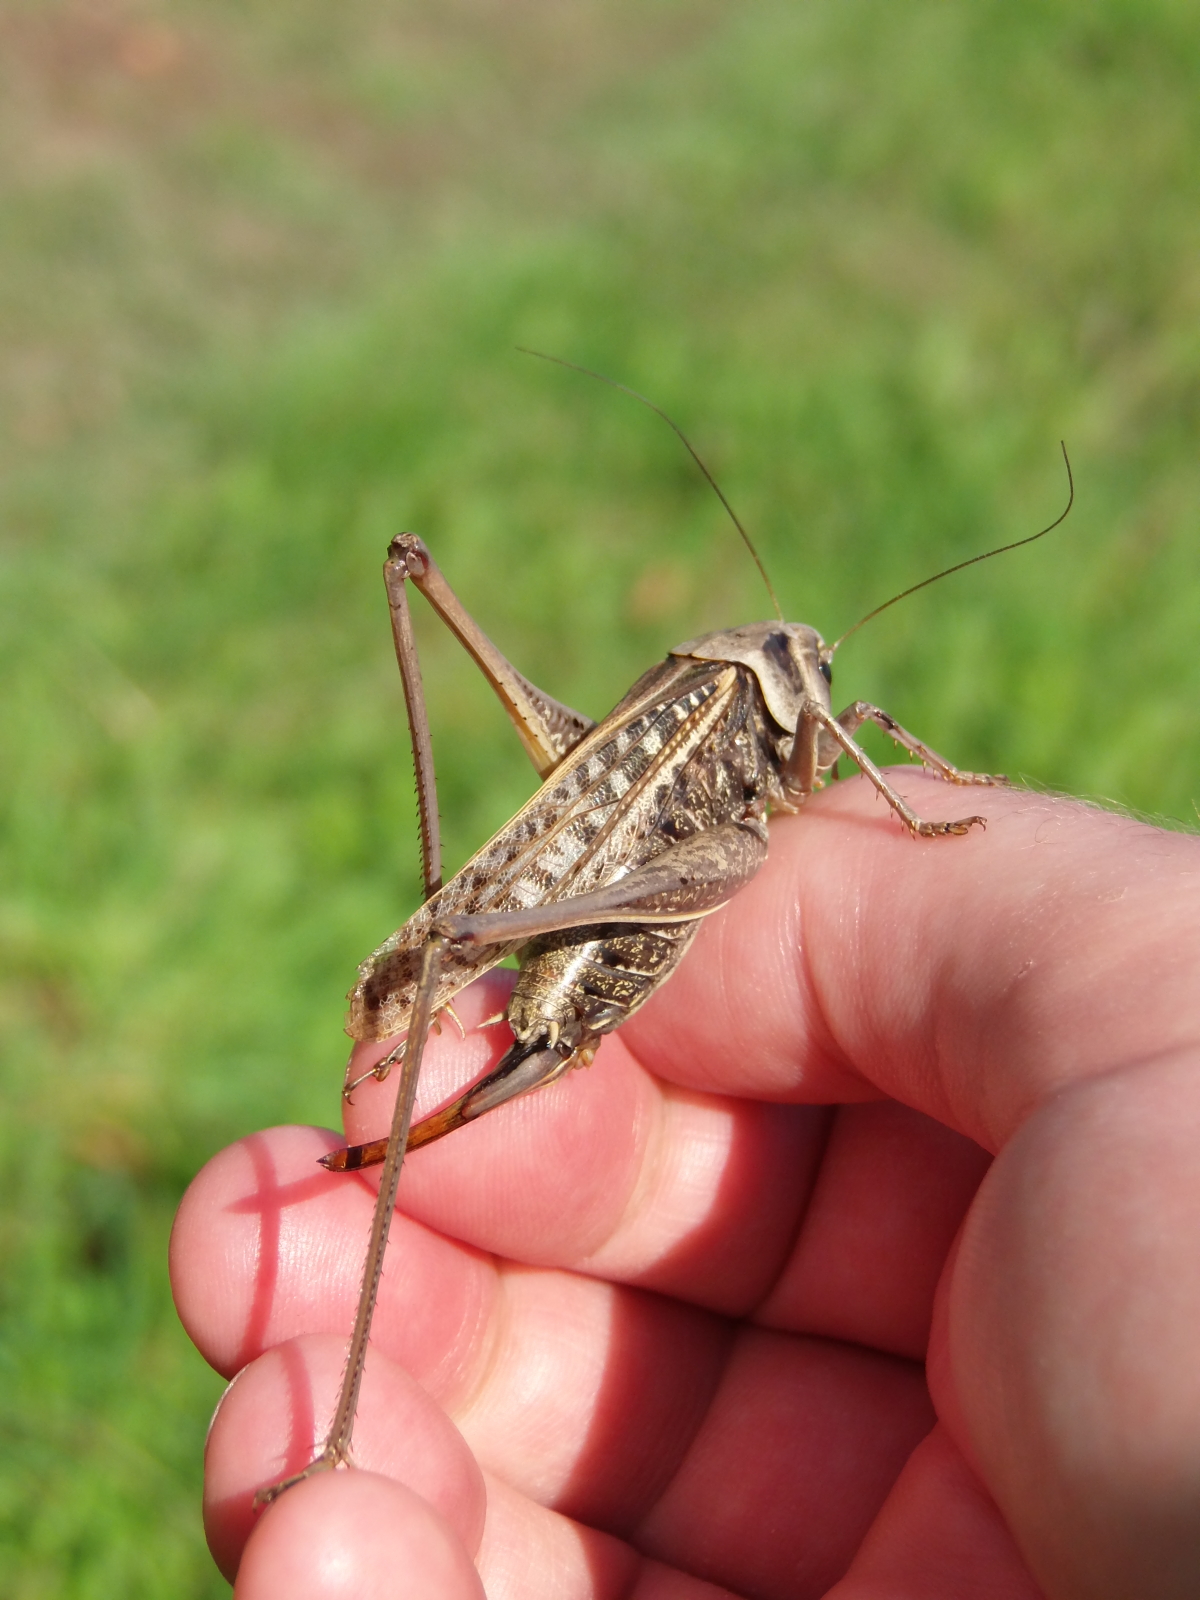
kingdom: Animalia
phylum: Arthropoda
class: Insecta
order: Orthoptera
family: Tettigoniidae
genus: Decticus
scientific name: Decticus verrucivorus
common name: Wart-biter
